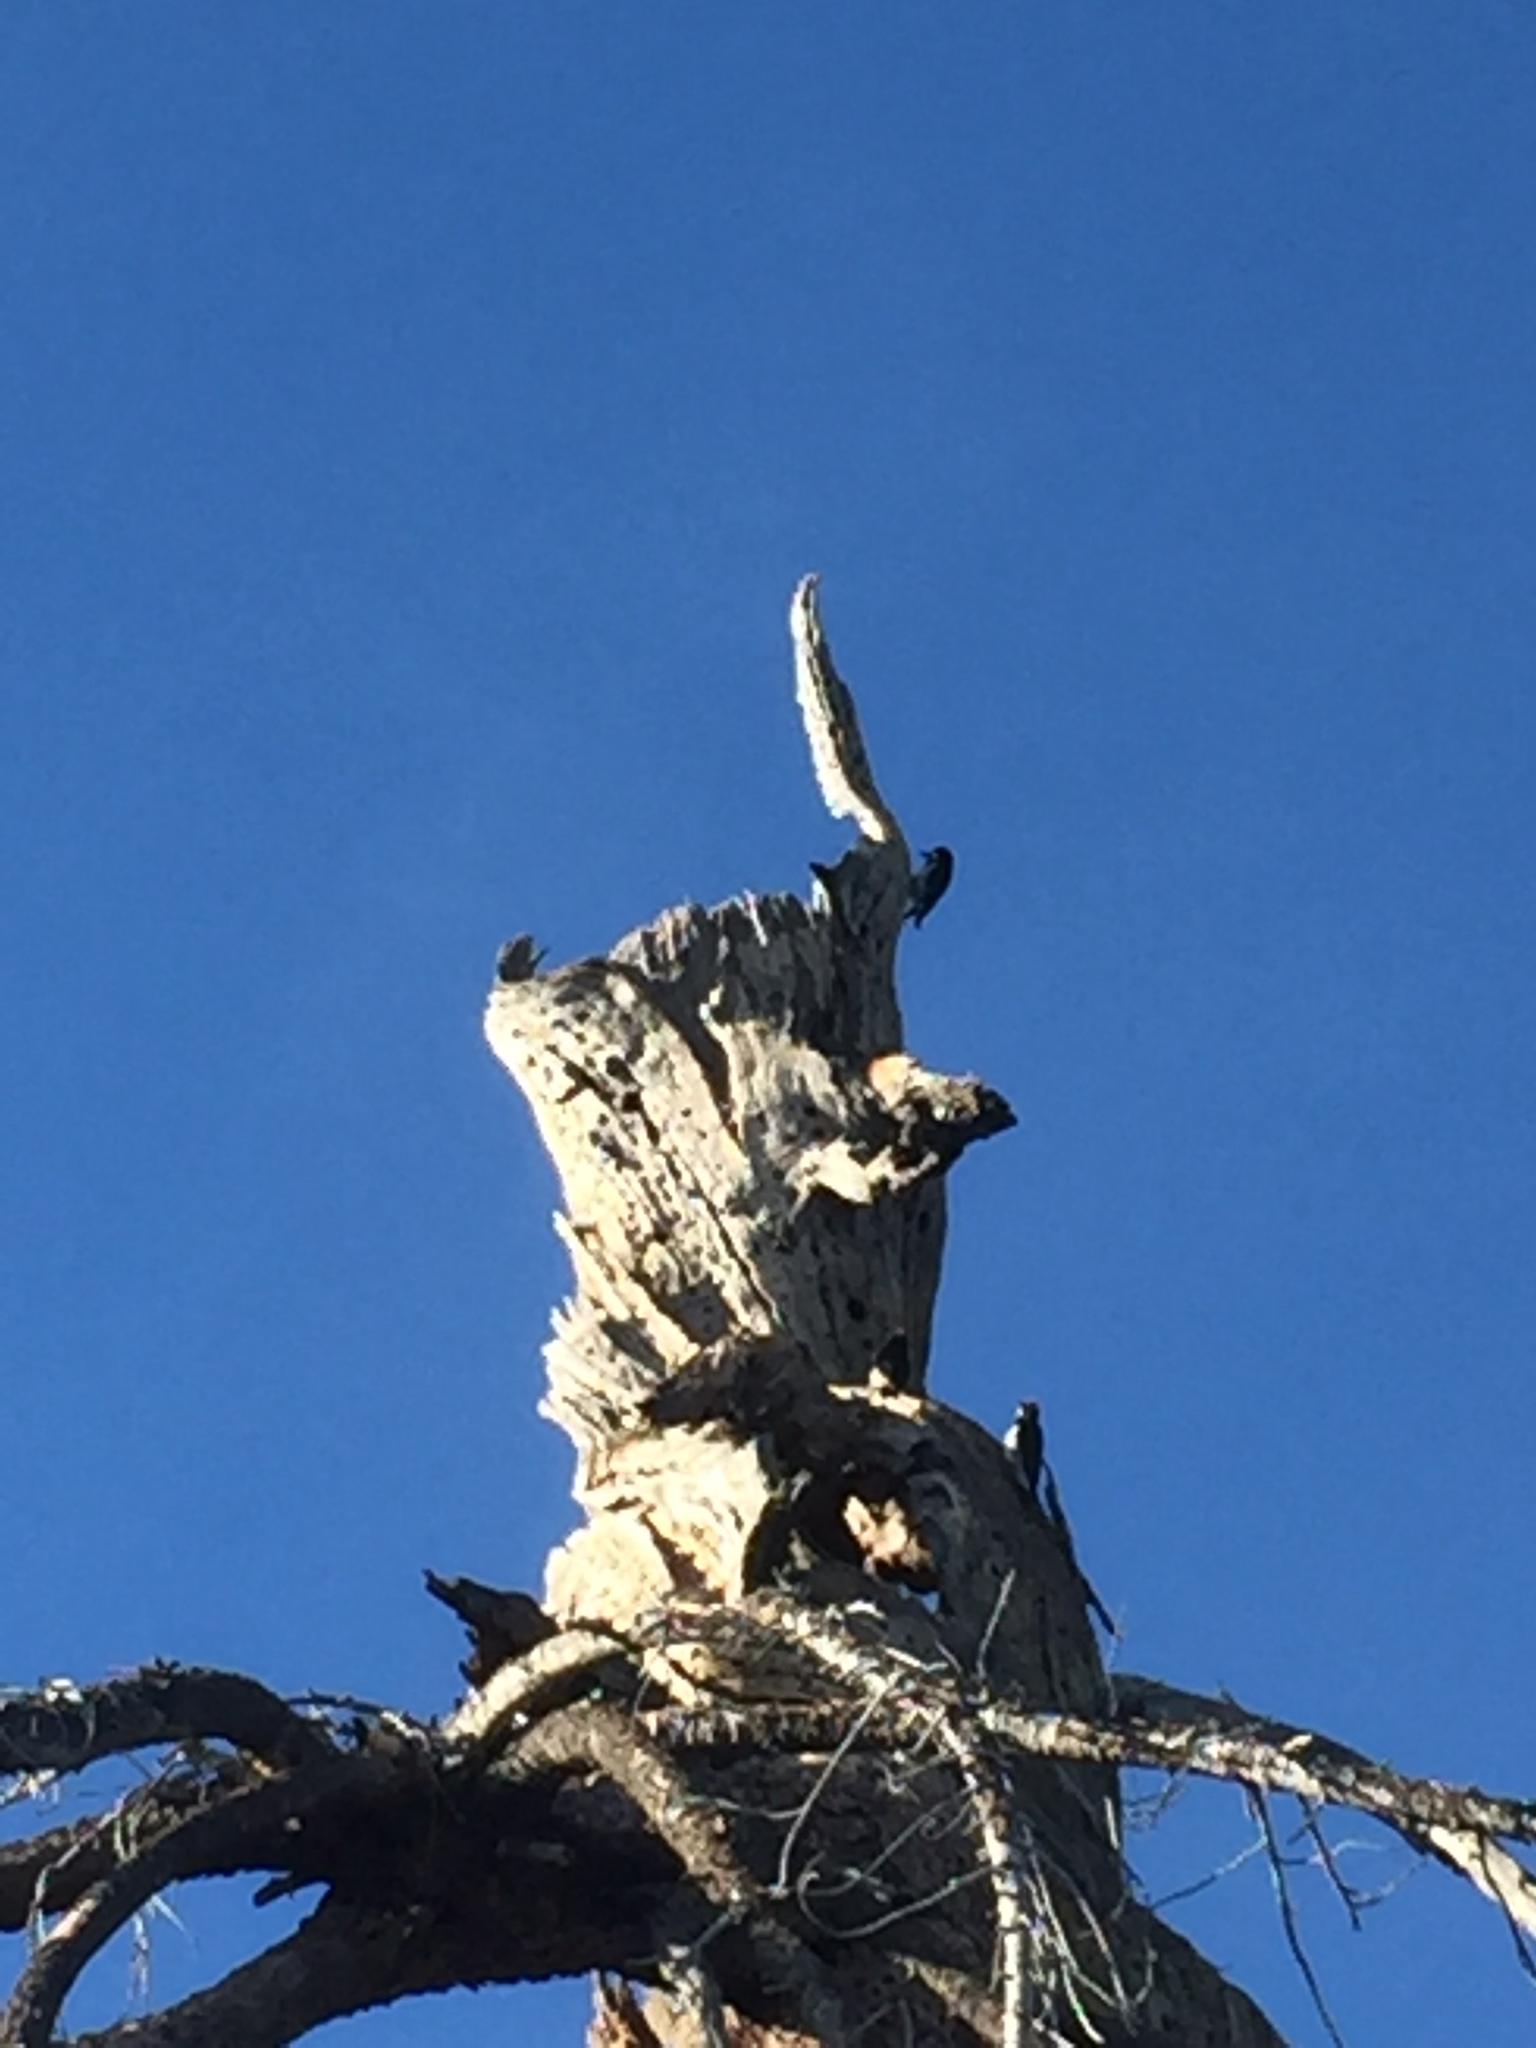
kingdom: Animalia
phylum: Chordata
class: Aves
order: Piciformes
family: Picidae
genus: Melanerpes
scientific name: Melanerpes formicivorus
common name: Acorn woodpecker
